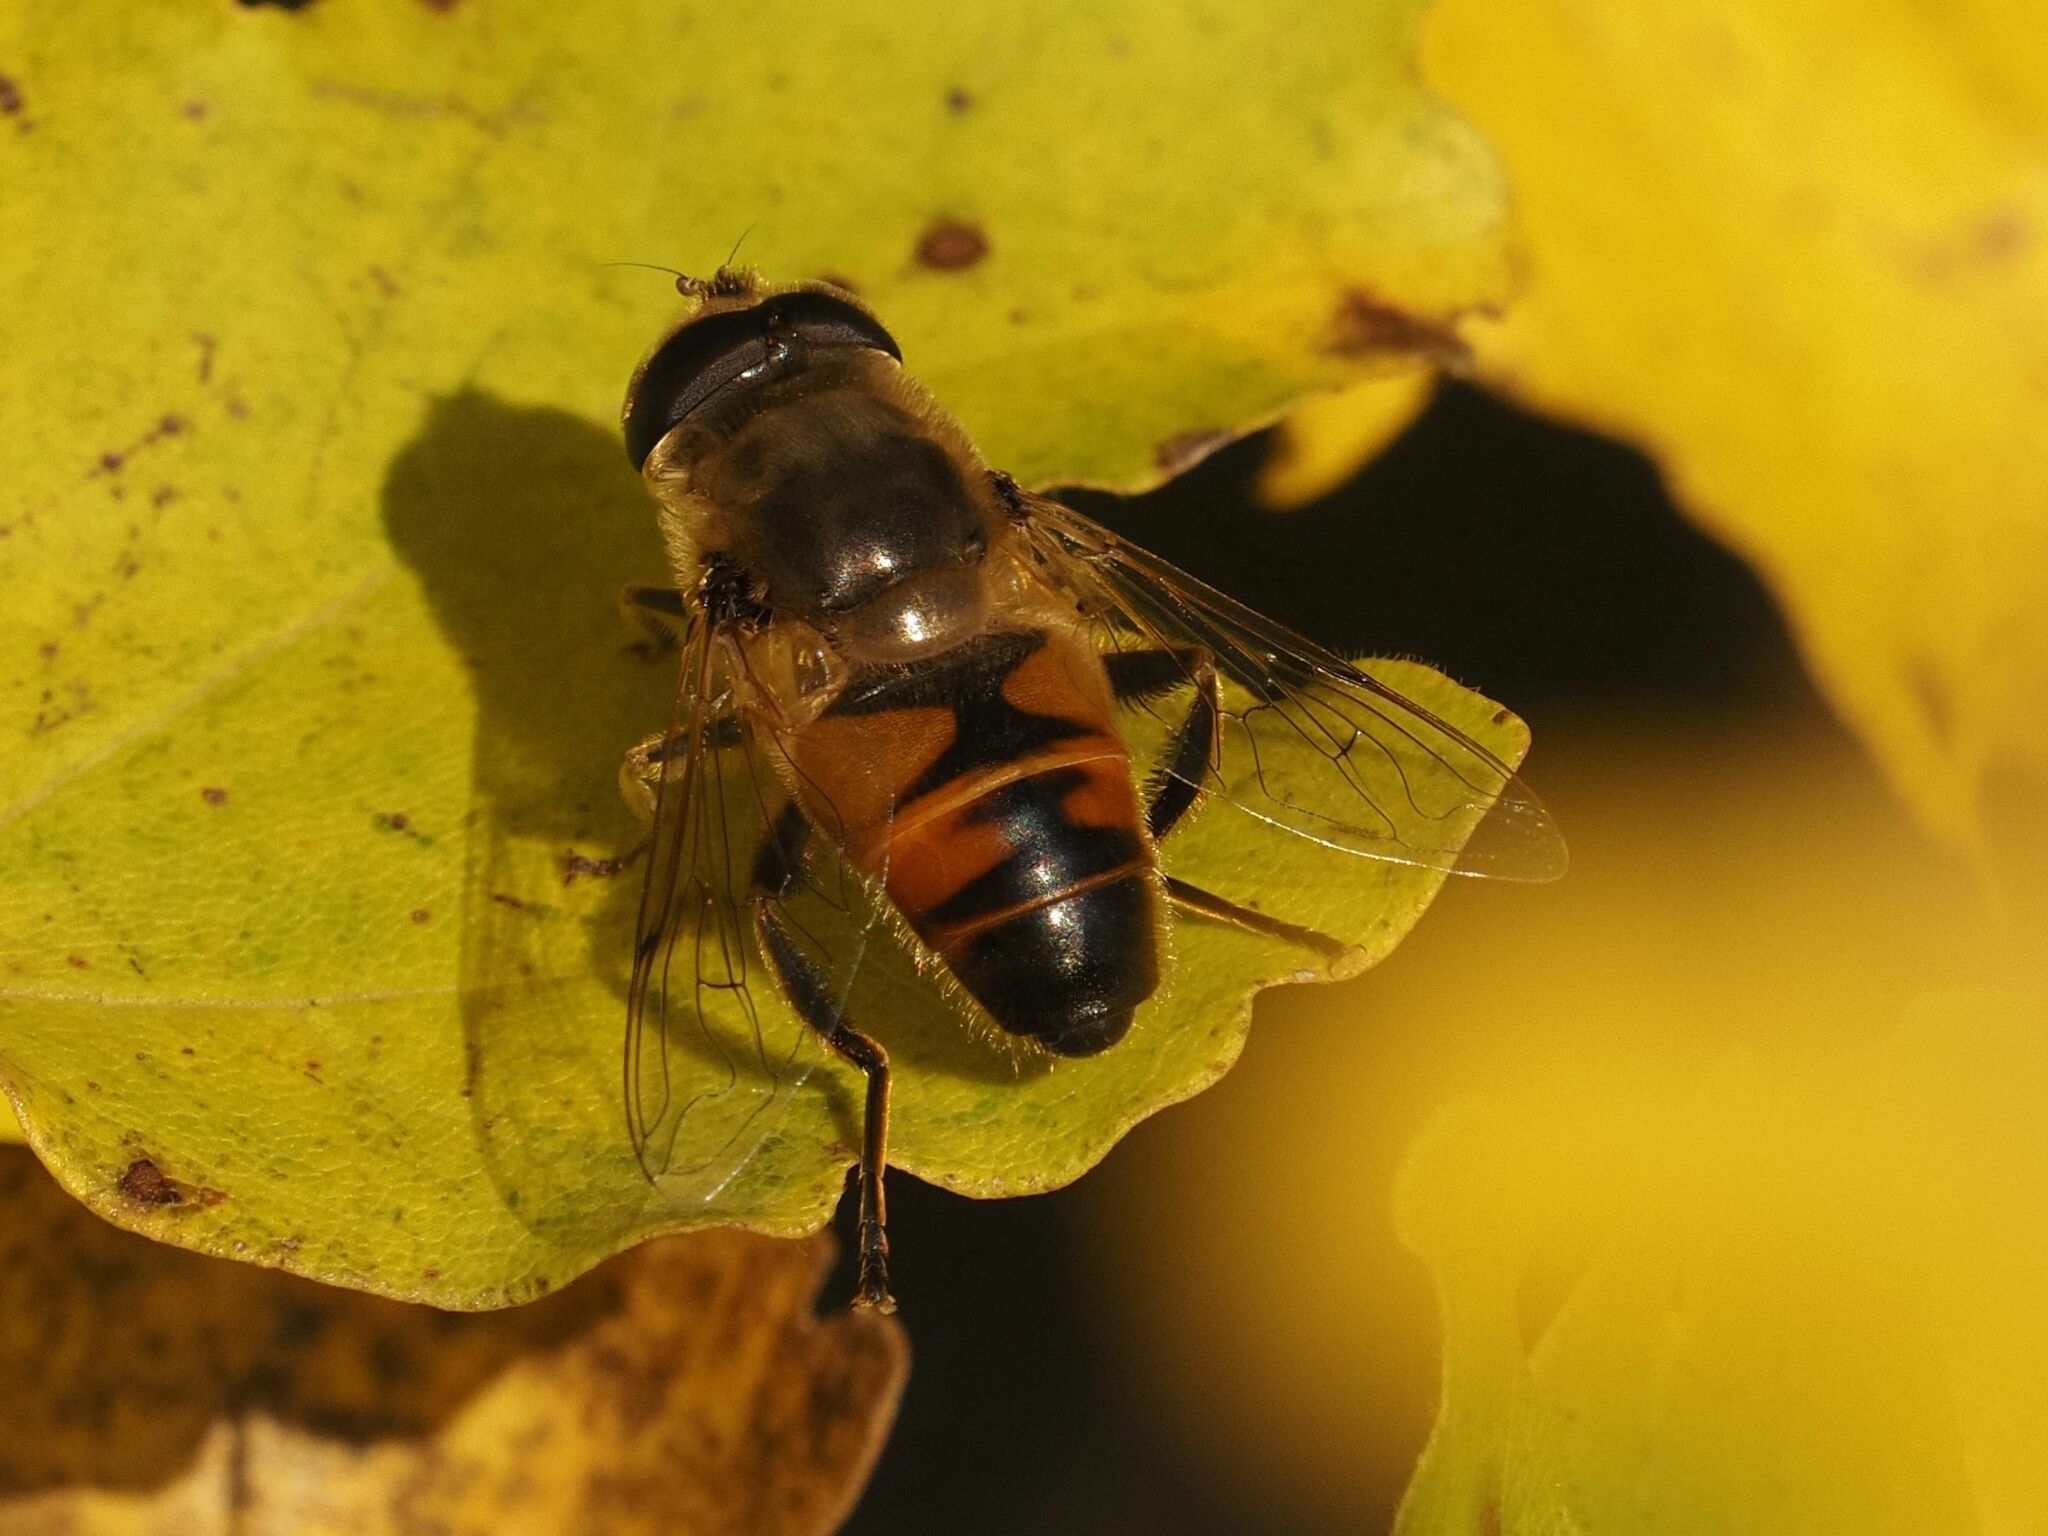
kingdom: Animalia
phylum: Arthropoda
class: Insecta
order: Diptera
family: Syrphidae
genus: Eristalis
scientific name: Eristalis tenax
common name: Drone fly
